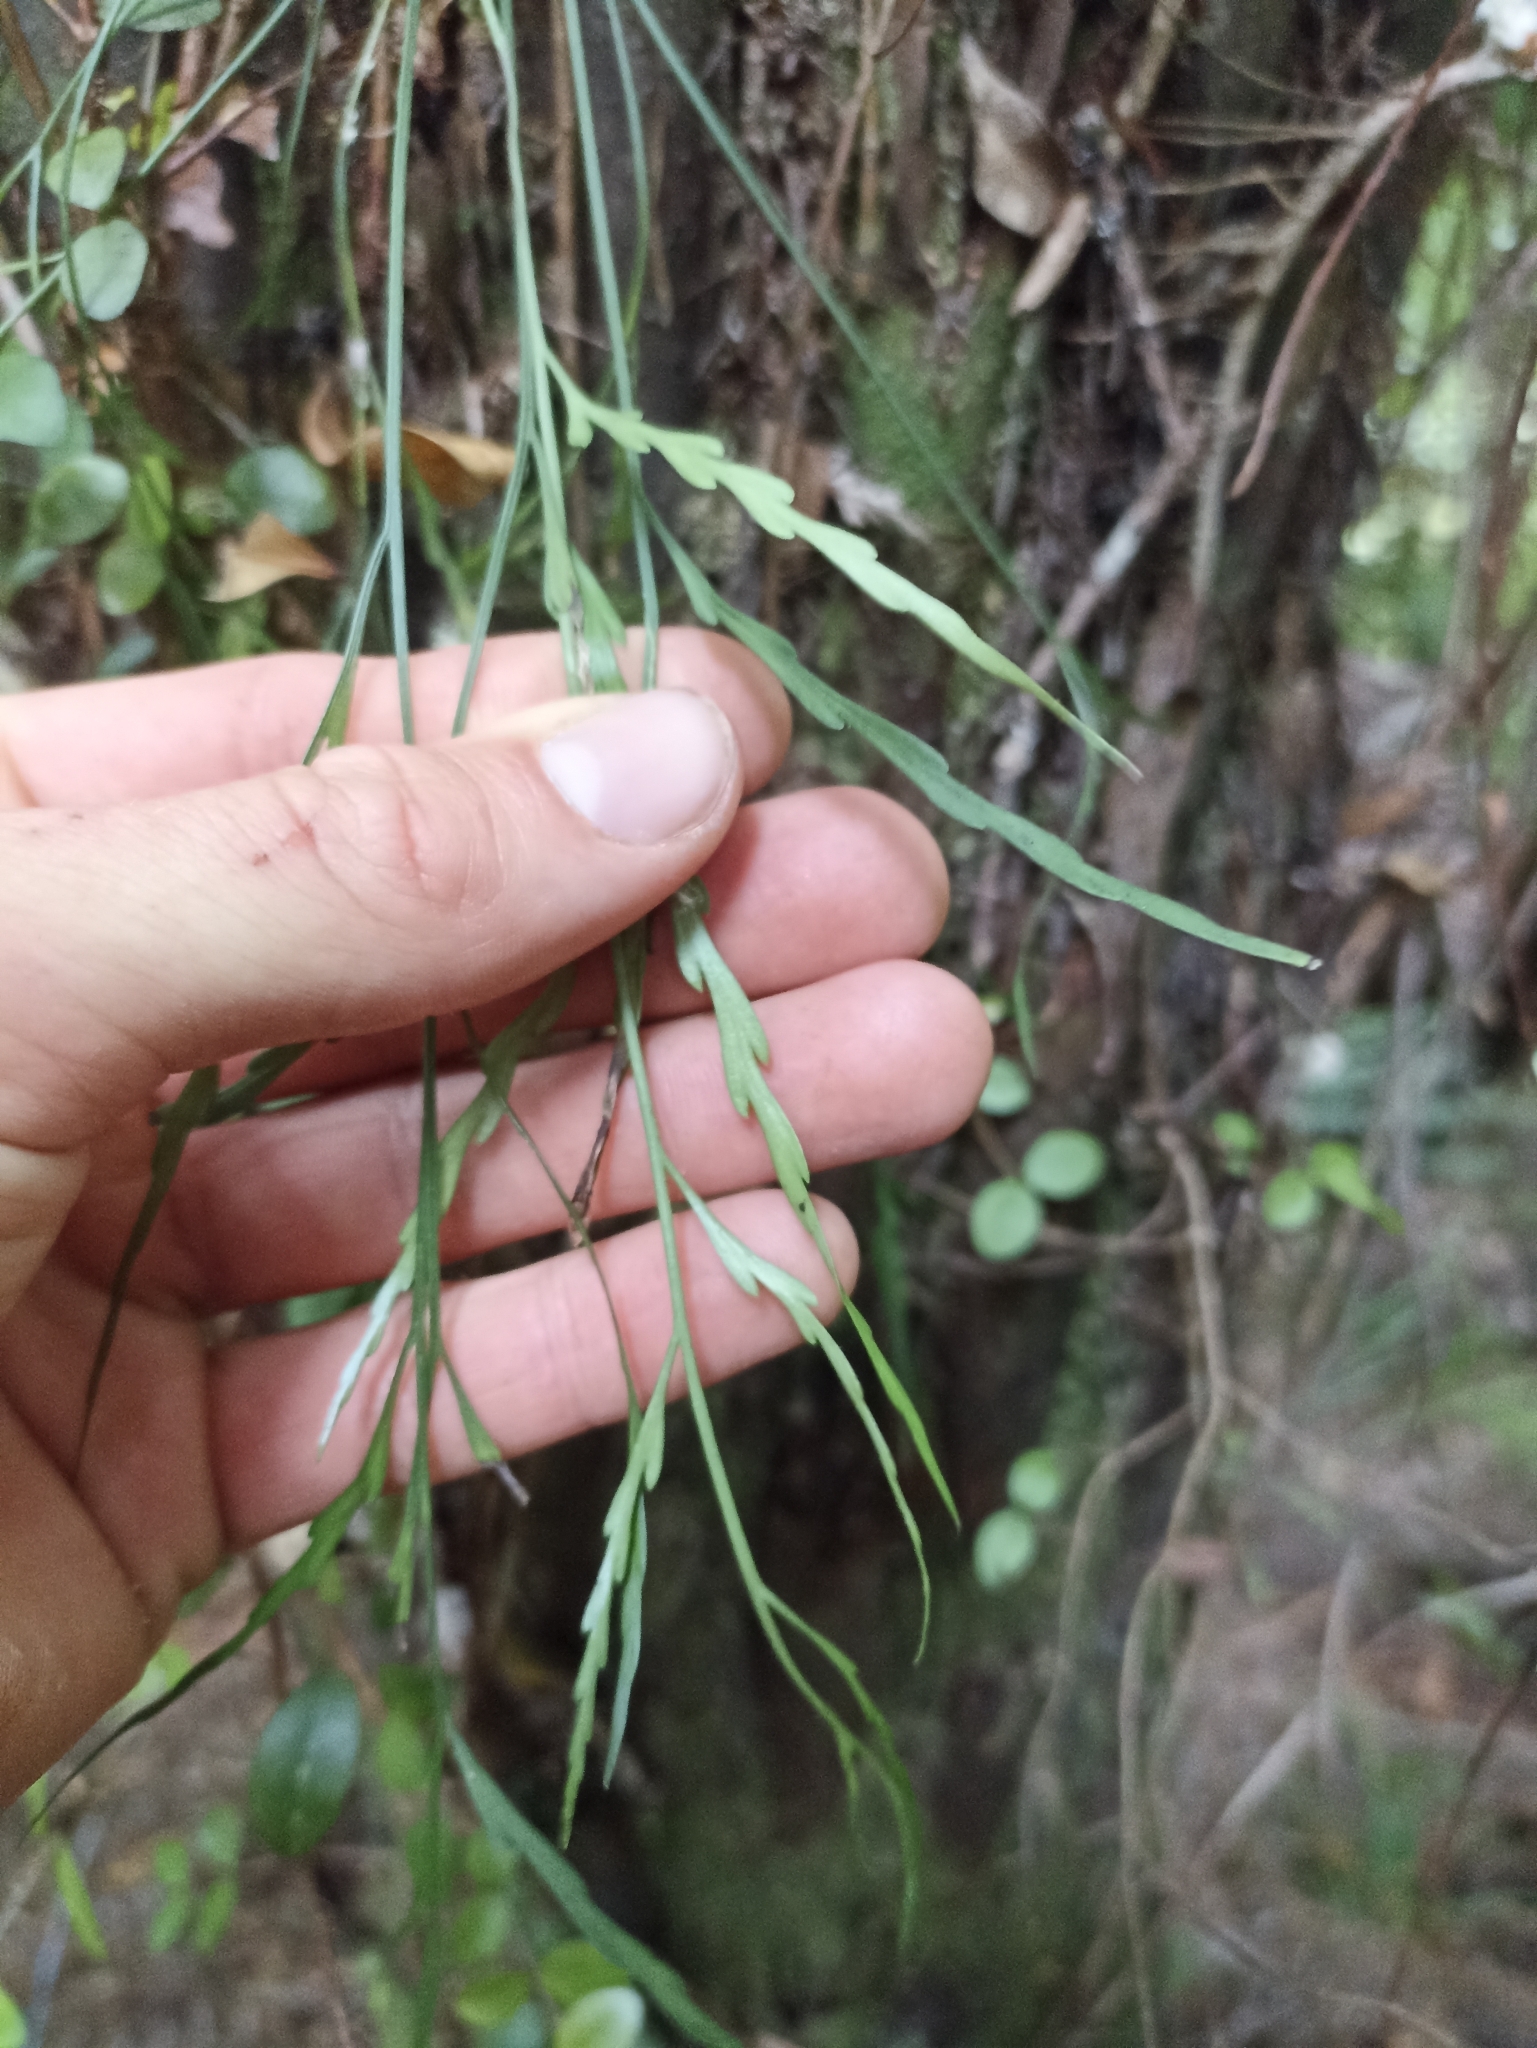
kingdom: Plantae
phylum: Tracheophyta
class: Polypodiopsida
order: Polypodiales
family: Aspleniaceae
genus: Asplenium
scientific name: Asplenium flaccidum
